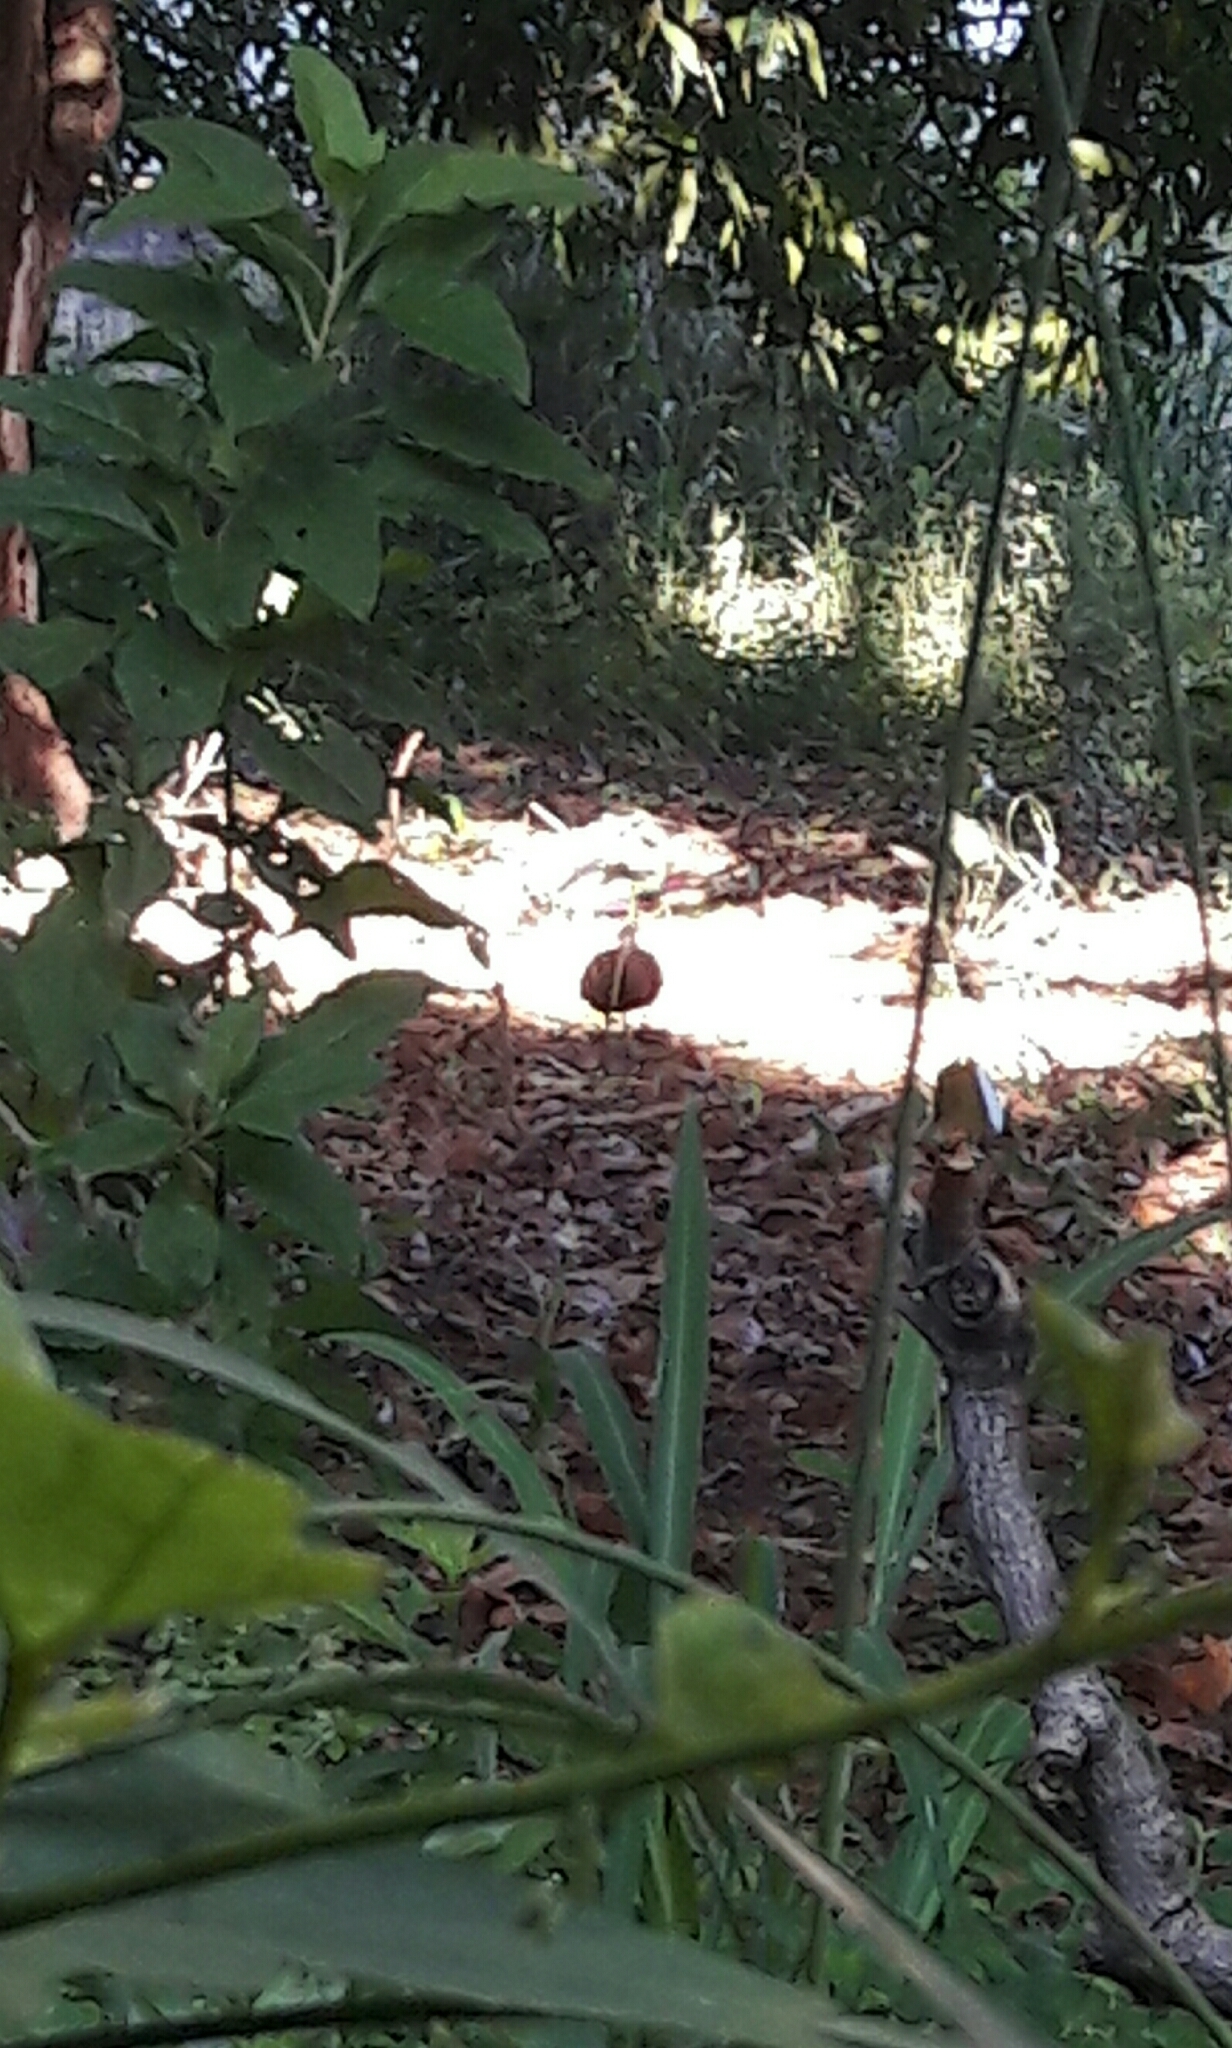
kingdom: Animalia
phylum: Chordata
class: Aves
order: Pelecaniformes
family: Threskiornithidae
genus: Mesembrinibis
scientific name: Mesembrinibis cayennensis
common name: Green ibis
